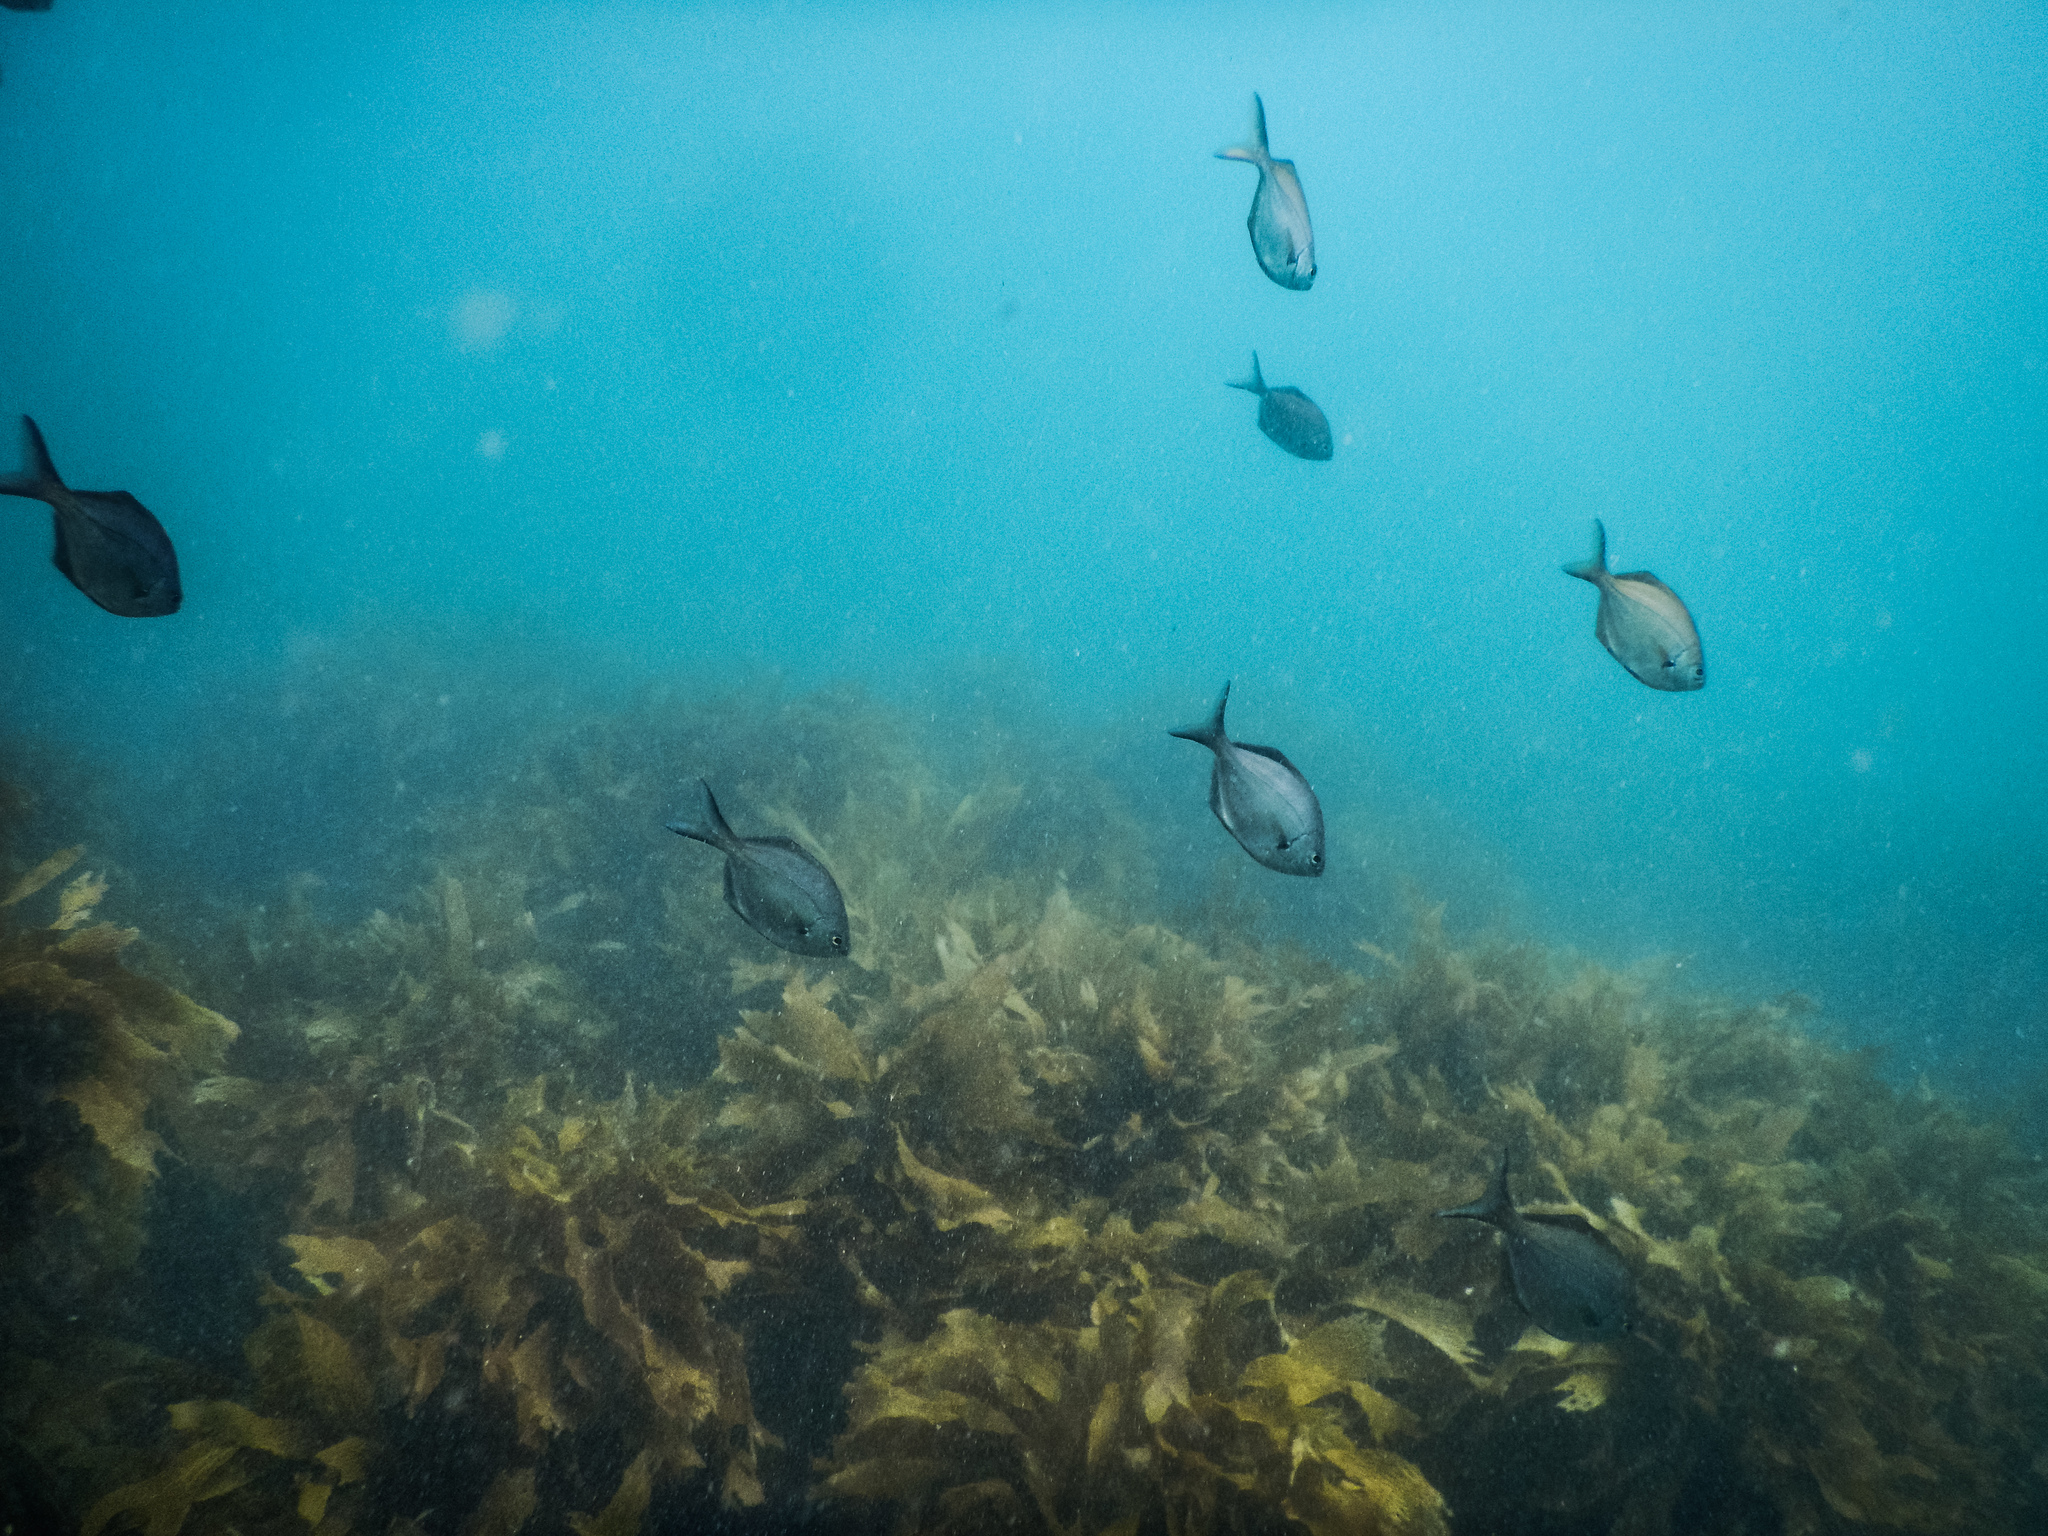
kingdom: Animalia
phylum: Chordata
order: Perciformes
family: Kyphosidae
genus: Scorpis
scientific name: Scorpis lineolata
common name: Sweep
